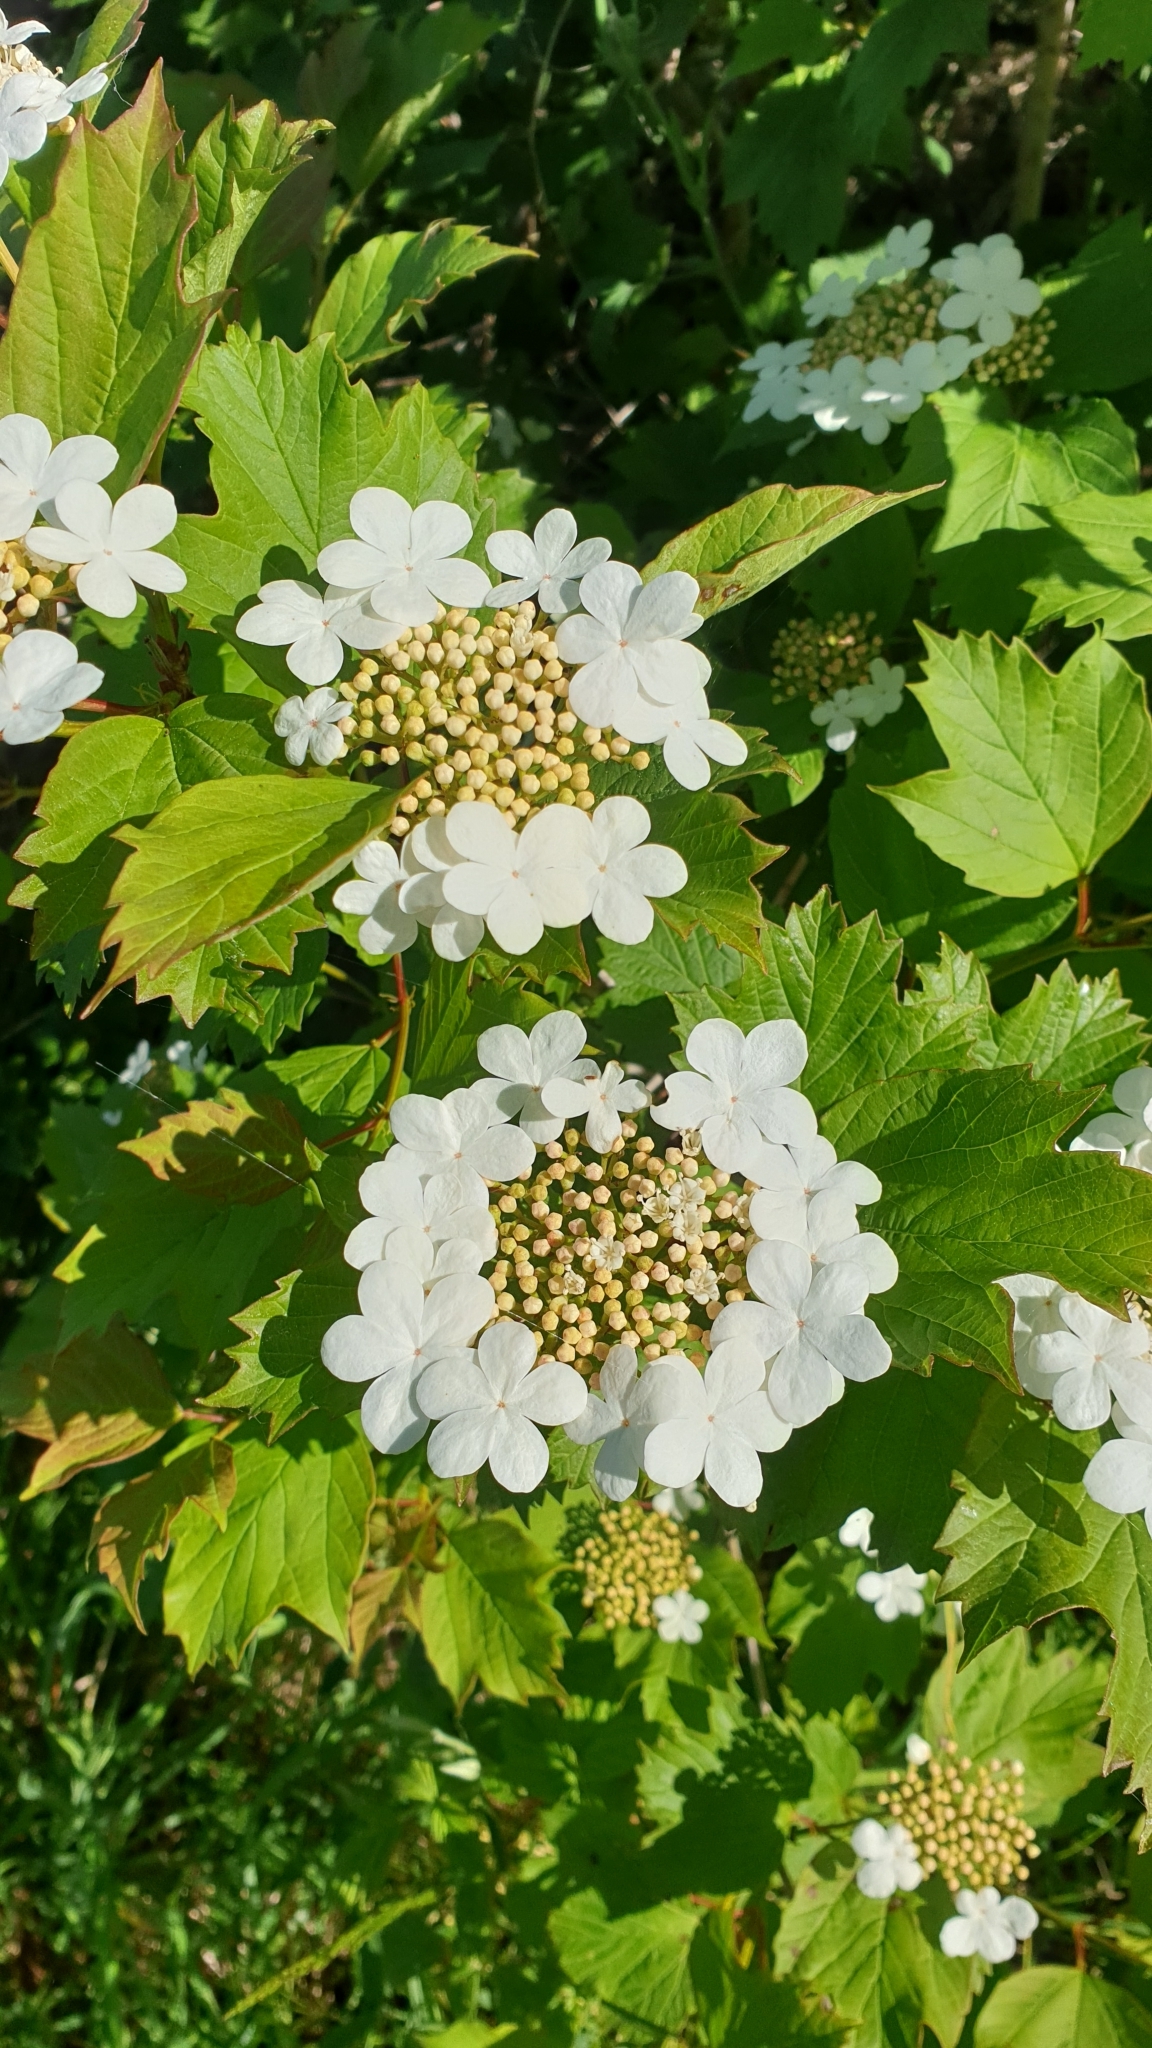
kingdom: Plantae
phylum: Tracheophyta
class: Magnoliopsida
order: Dipsacales
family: Viburnaceae
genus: Viburnum
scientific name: Viburnum opulus
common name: Guelder-rose
